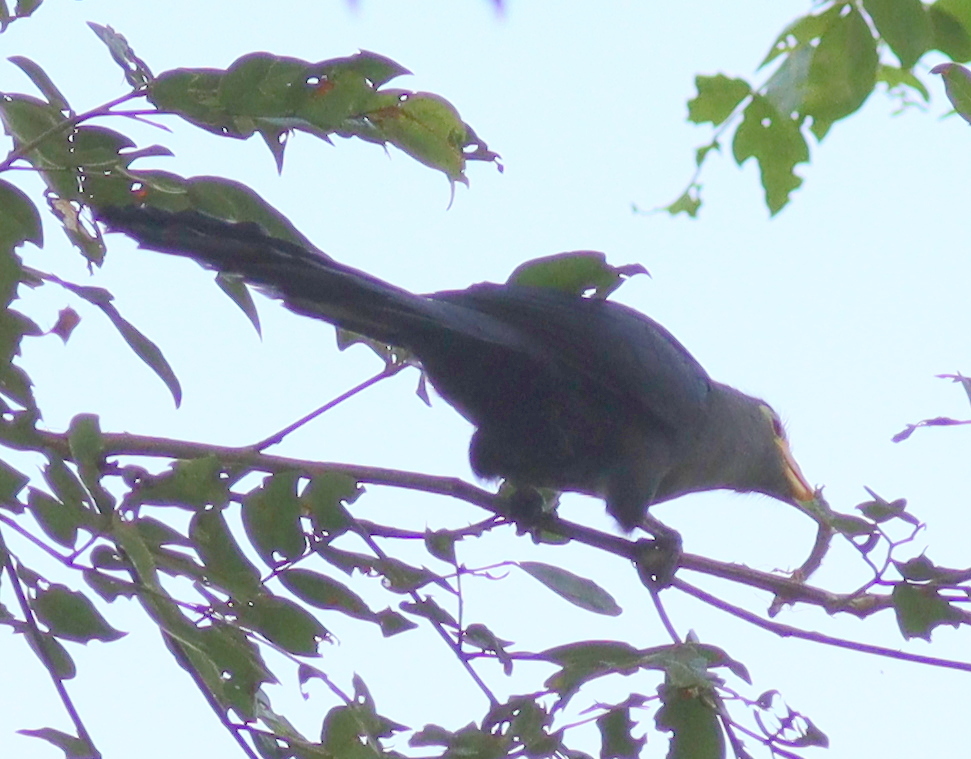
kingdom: Animalia
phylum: Chordata
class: Aves
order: Cuculiformes
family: Cuculidae
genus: Ceuthmochares
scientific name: Ceuthmochares aereus
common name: Blue malkoha
